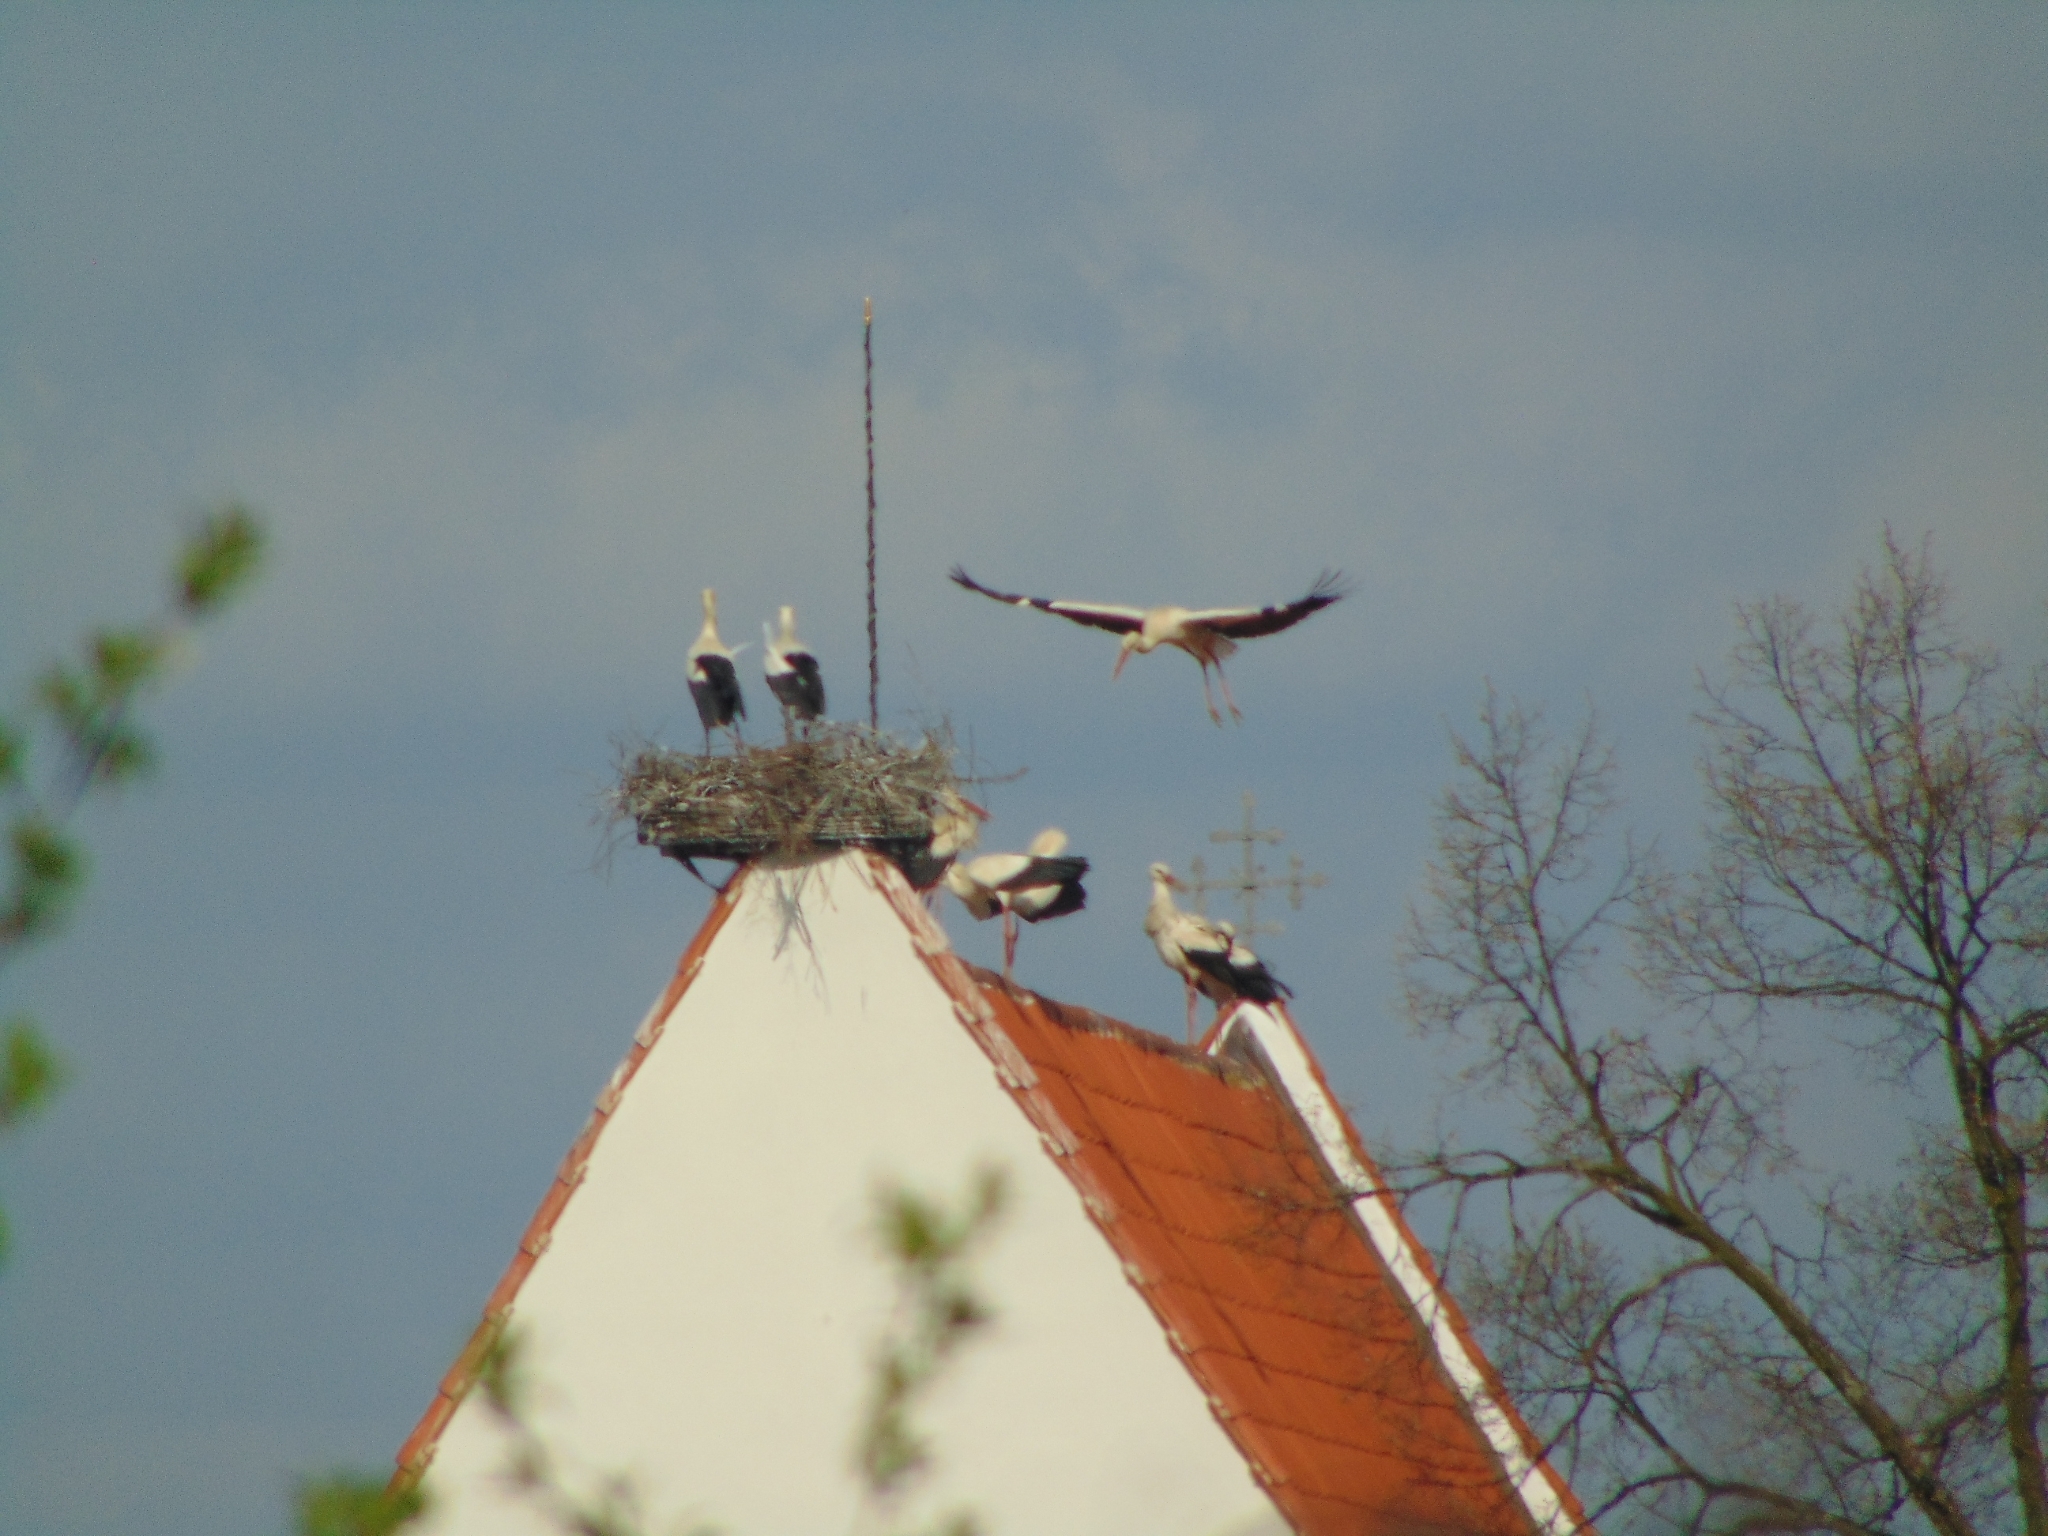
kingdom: Animalia
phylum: Chordata
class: Aves
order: Ciconiiformes
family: Ciconiidae
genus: Ciconia
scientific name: Ciconia ciconia
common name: White stork
